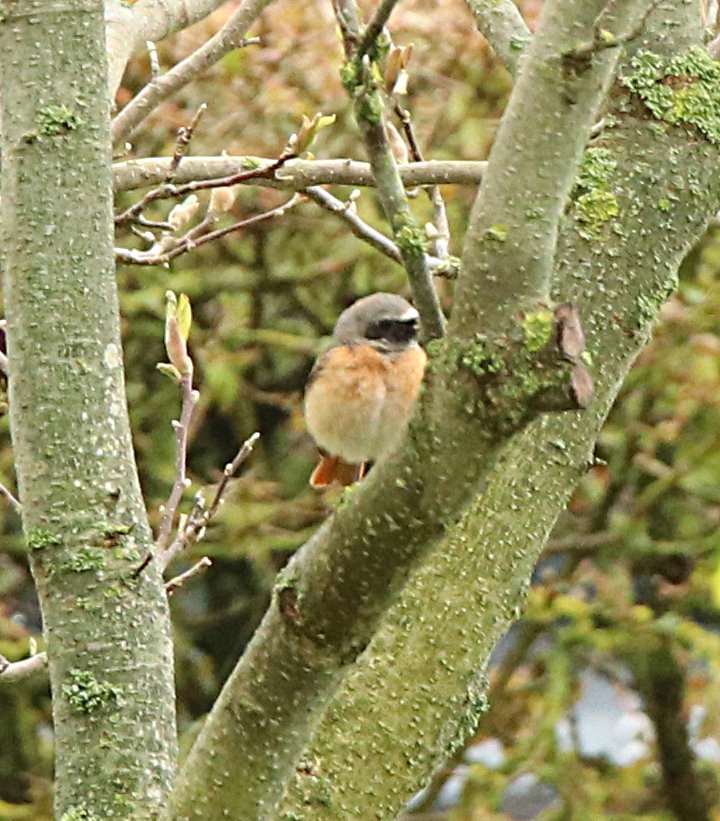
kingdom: Animalia
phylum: Chordata
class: Aves
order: Passeriformes
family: Muscicapidae
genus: Phoenicurus
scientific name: Phoenicurus phoenicurus
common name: Common redstart
